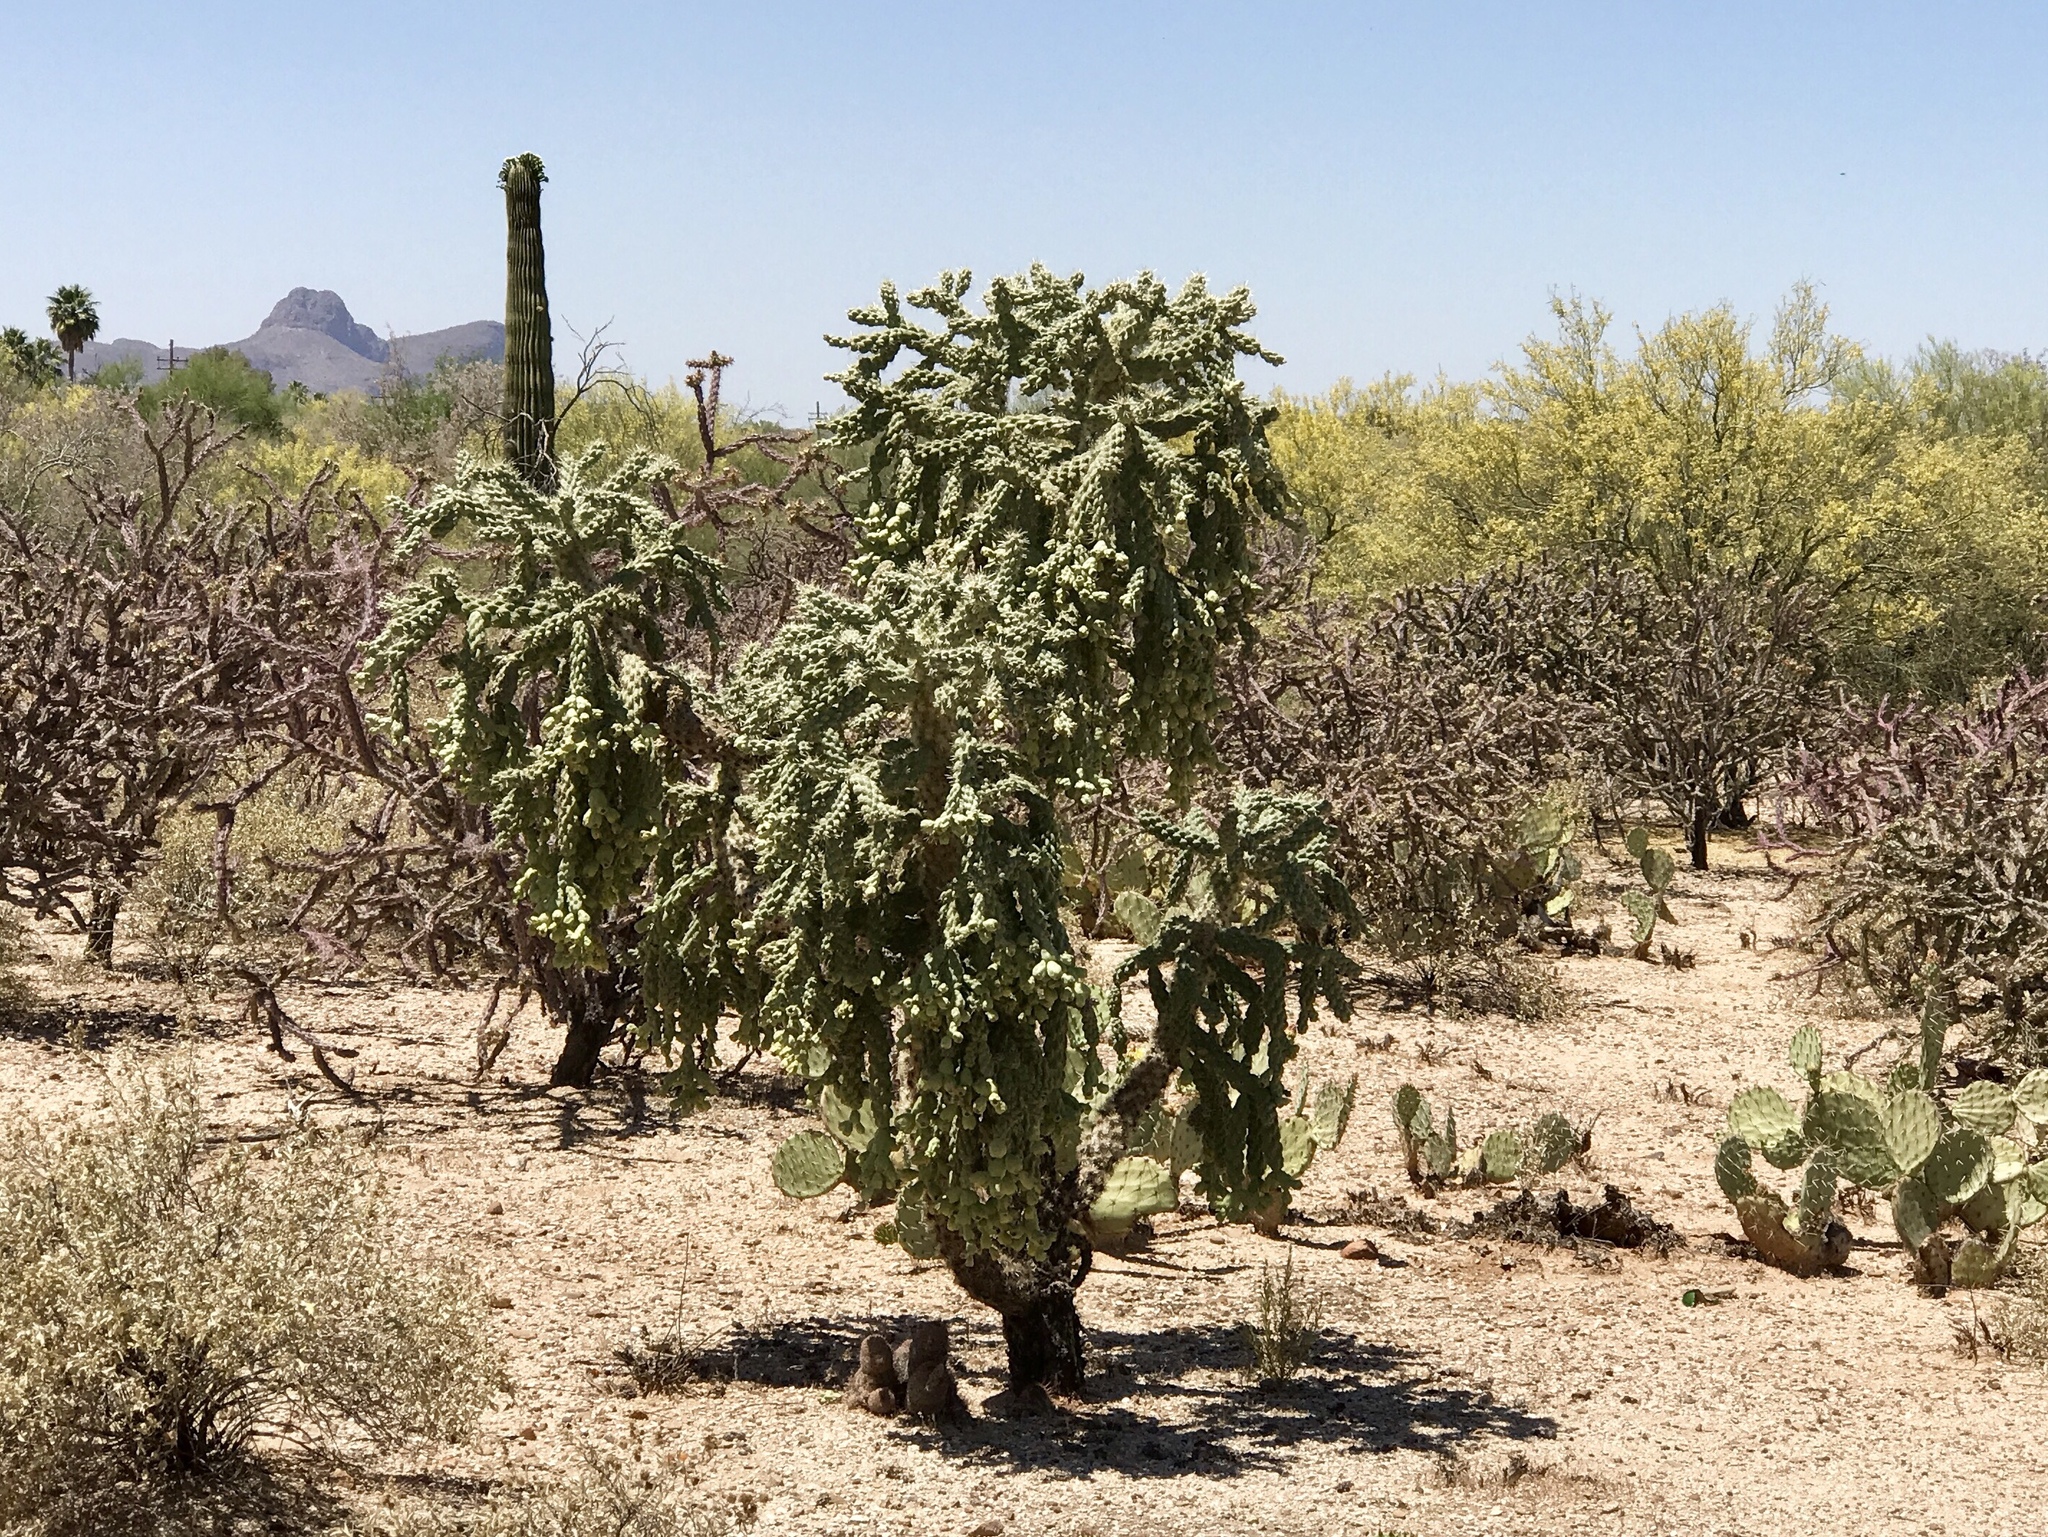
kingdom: Plantae
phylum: Tracheophyta
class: Magnoliopsida
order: Caryophyllales
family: Cactaceae
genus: Cylindropuntia
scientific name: Cylindropuntia fulgida
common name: Jumping cholla
